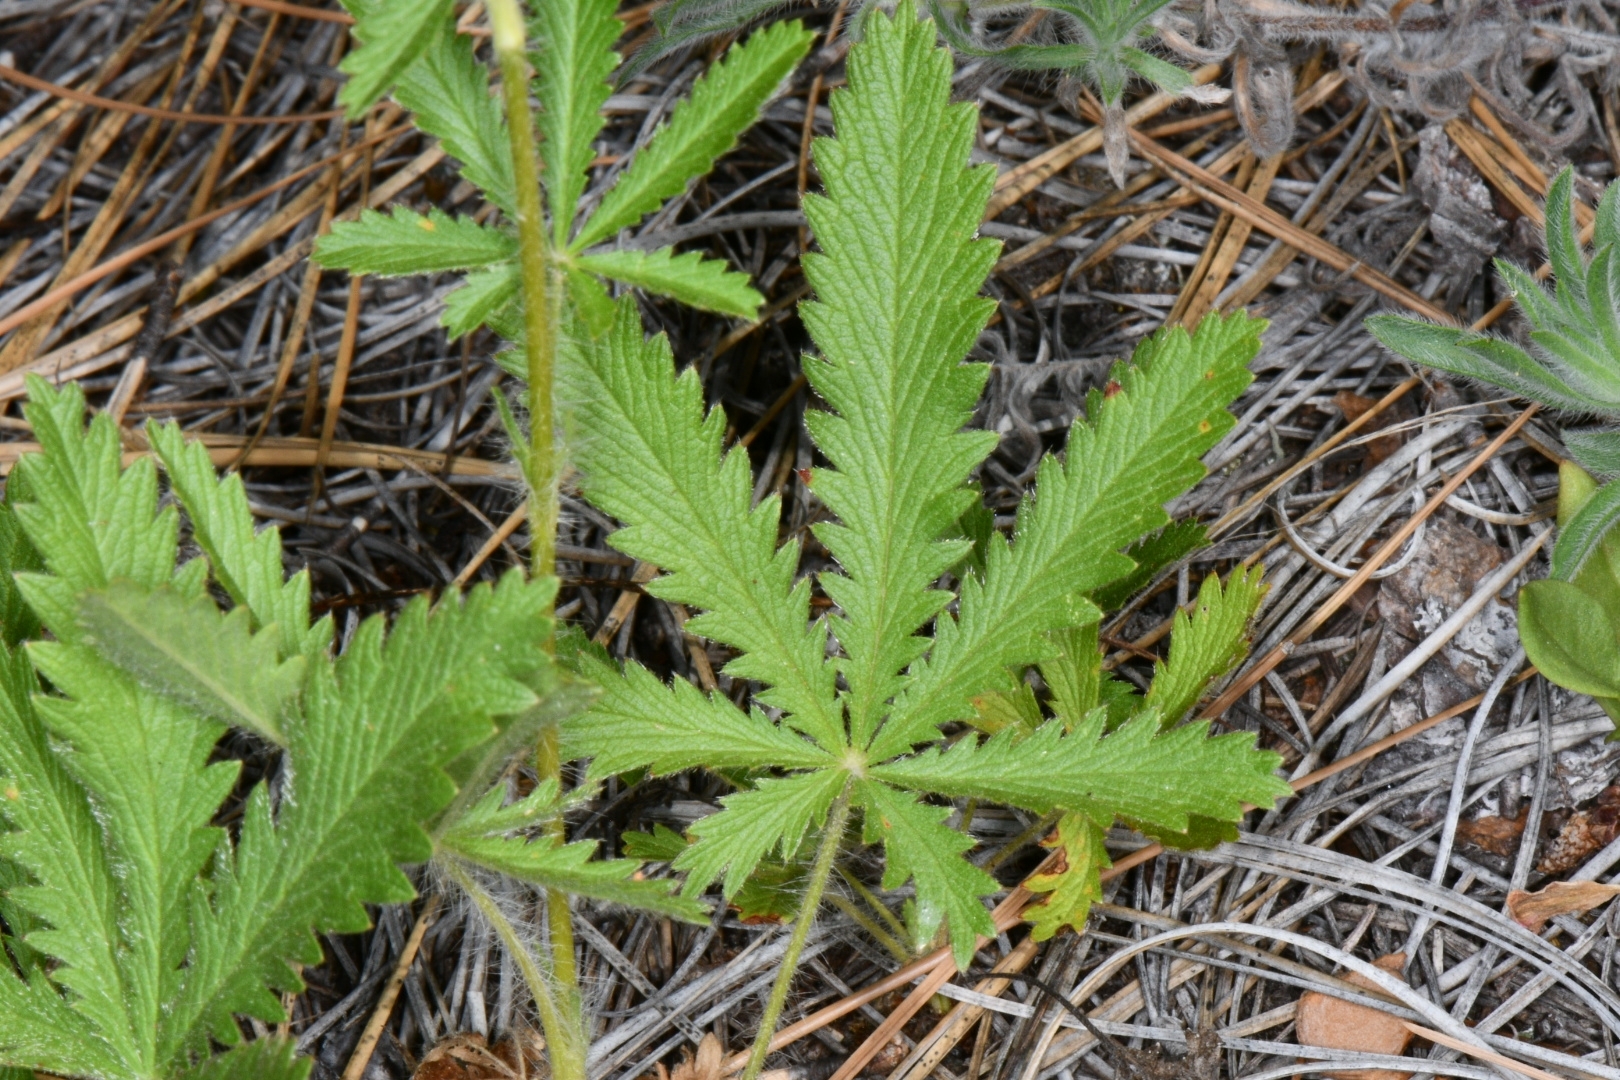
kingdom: Plantae
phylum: Tracheophyta
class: Magnoliopsida
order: Rosales
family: Rosaceae
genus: Potentilla
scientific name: Potentilla recta
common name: Sulphur cinquefoil
